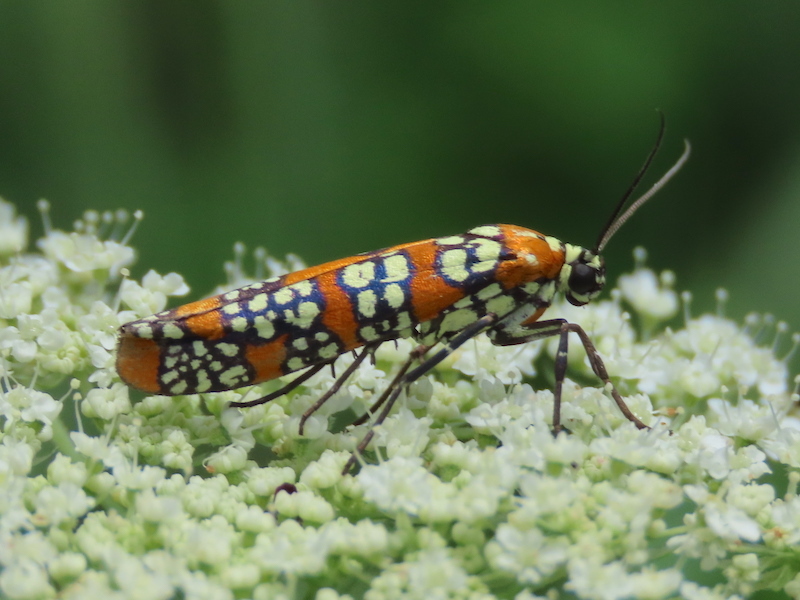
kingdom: Animalia
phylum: Arthropoda
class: Insecta
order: Lepidoptera
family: Attevidae
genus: Atteva
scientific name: Atteva punctella
